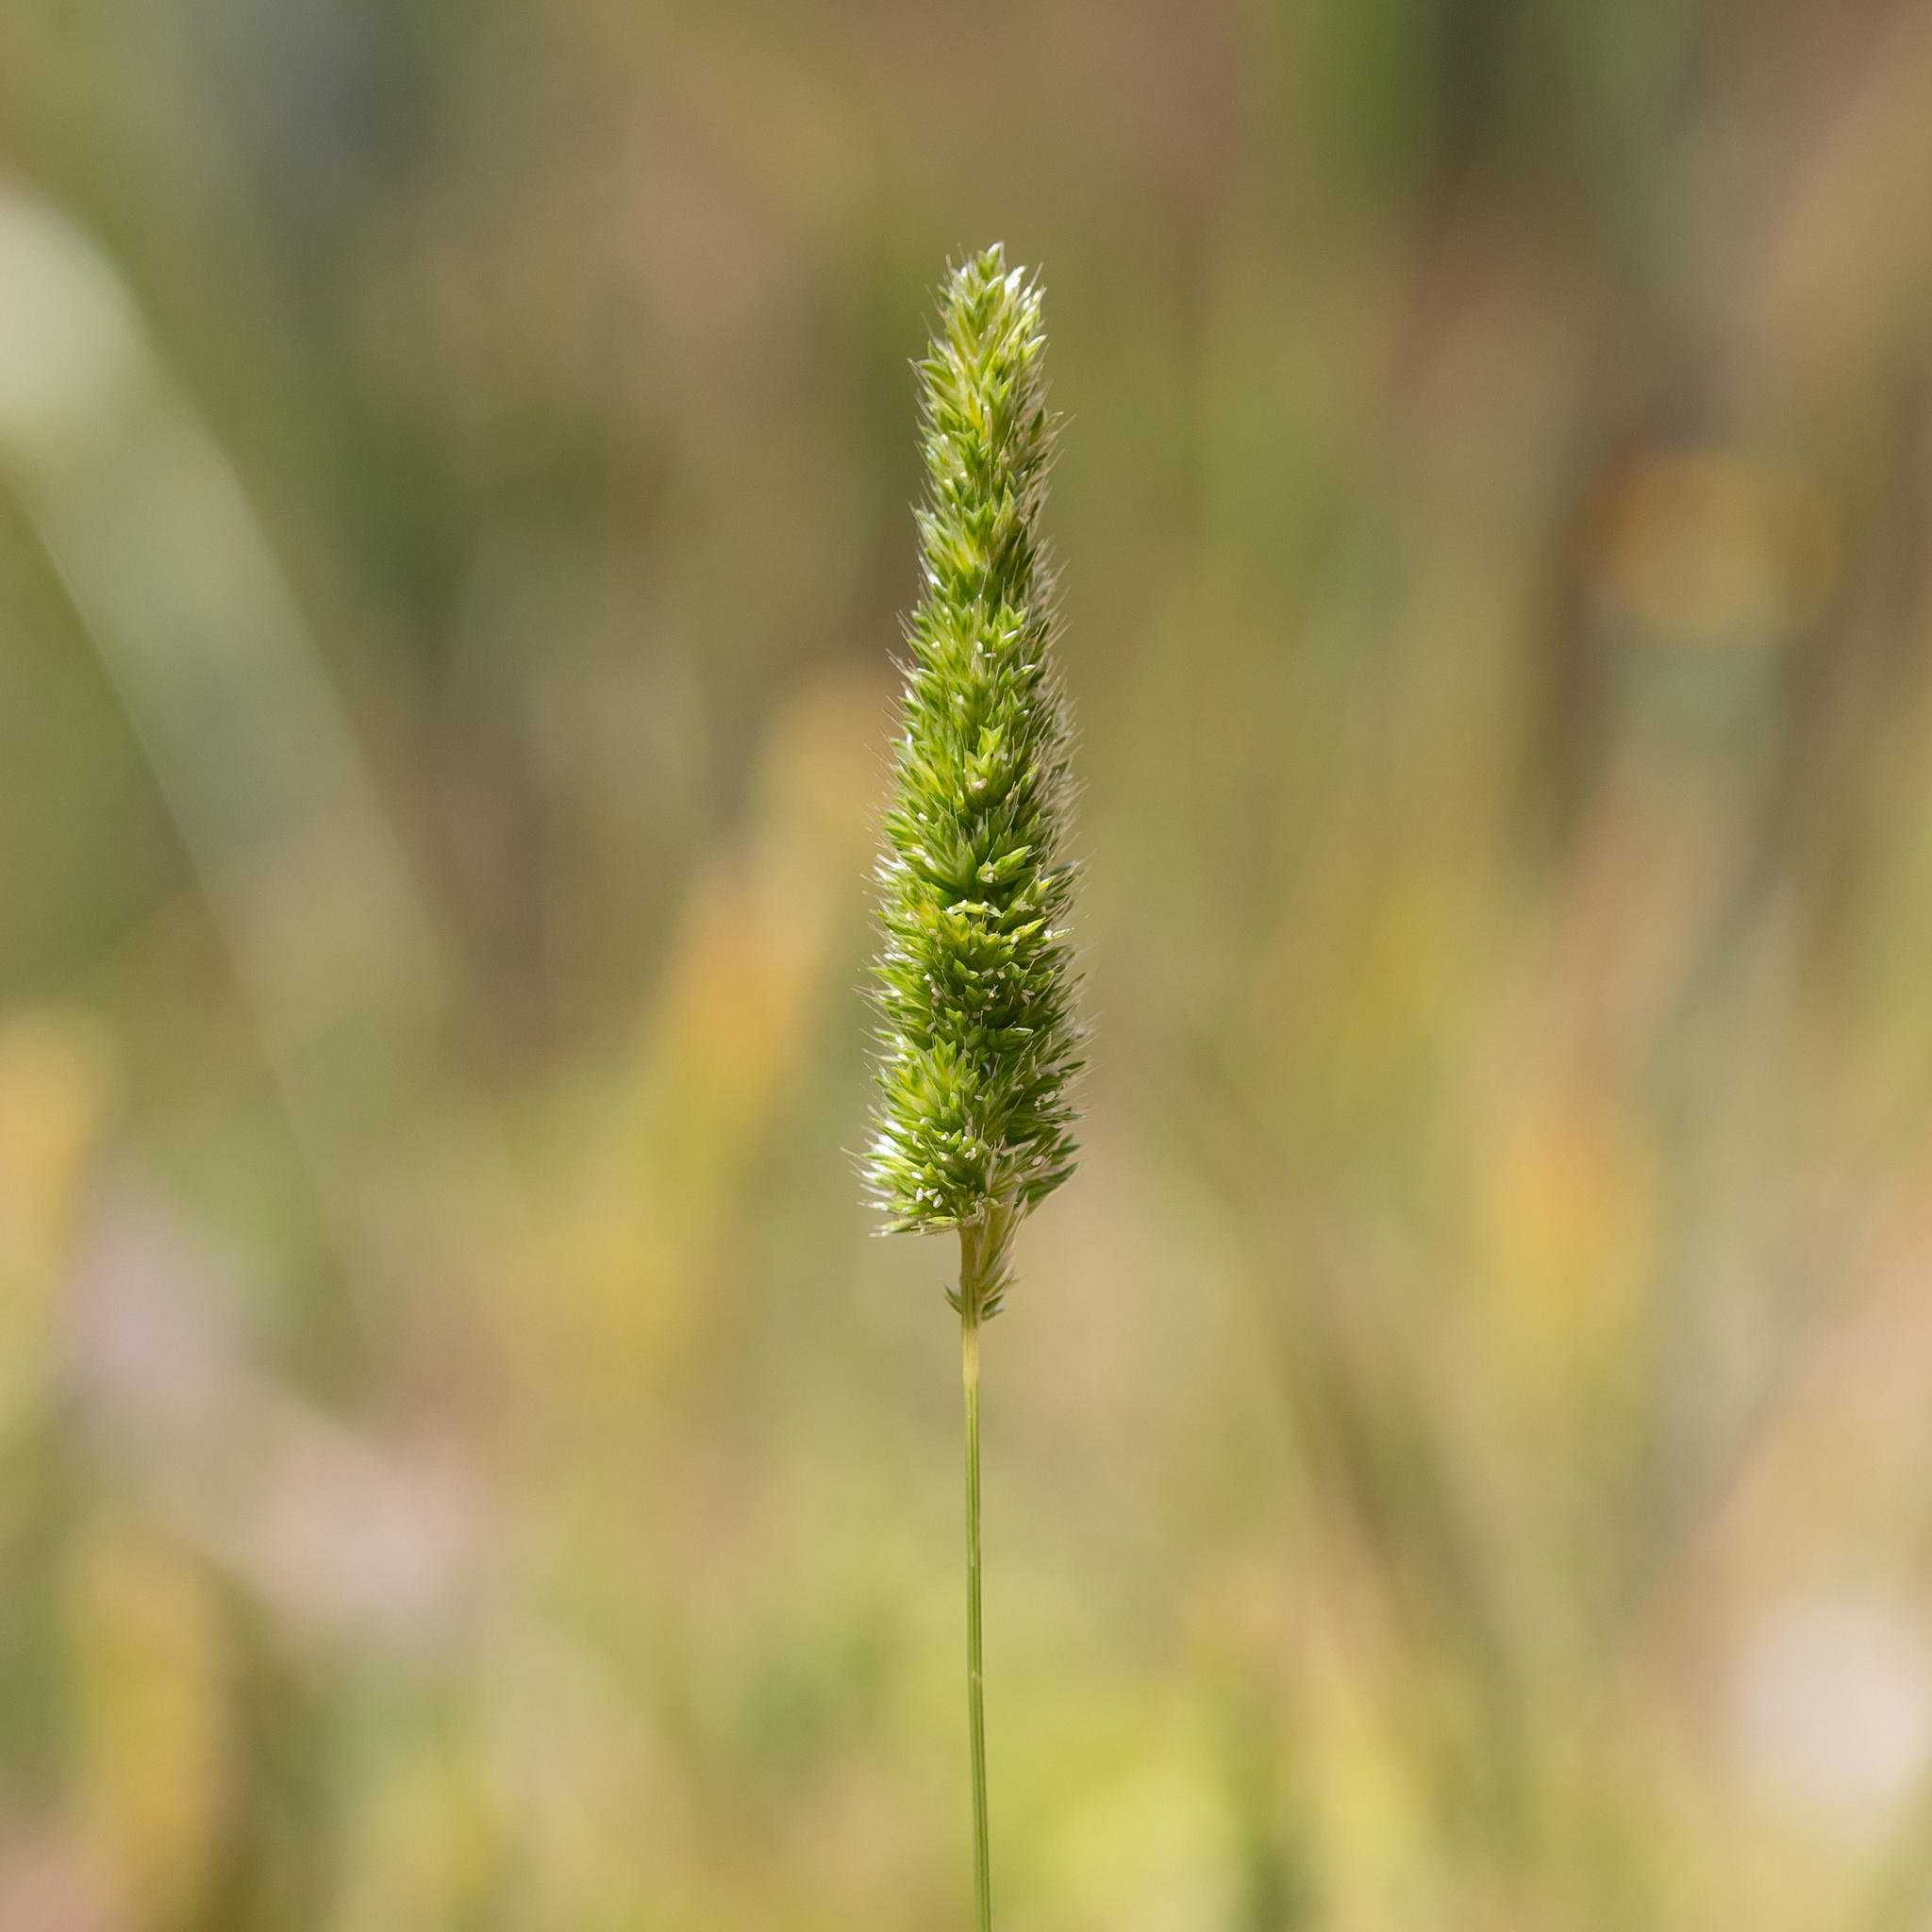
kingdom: Plantae
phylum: Tracheophyta
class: Liliopsida
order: Poales
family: Poaceae
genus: Rostraria
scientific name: Rostraria cristata
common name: Mediterranean hair-grass
